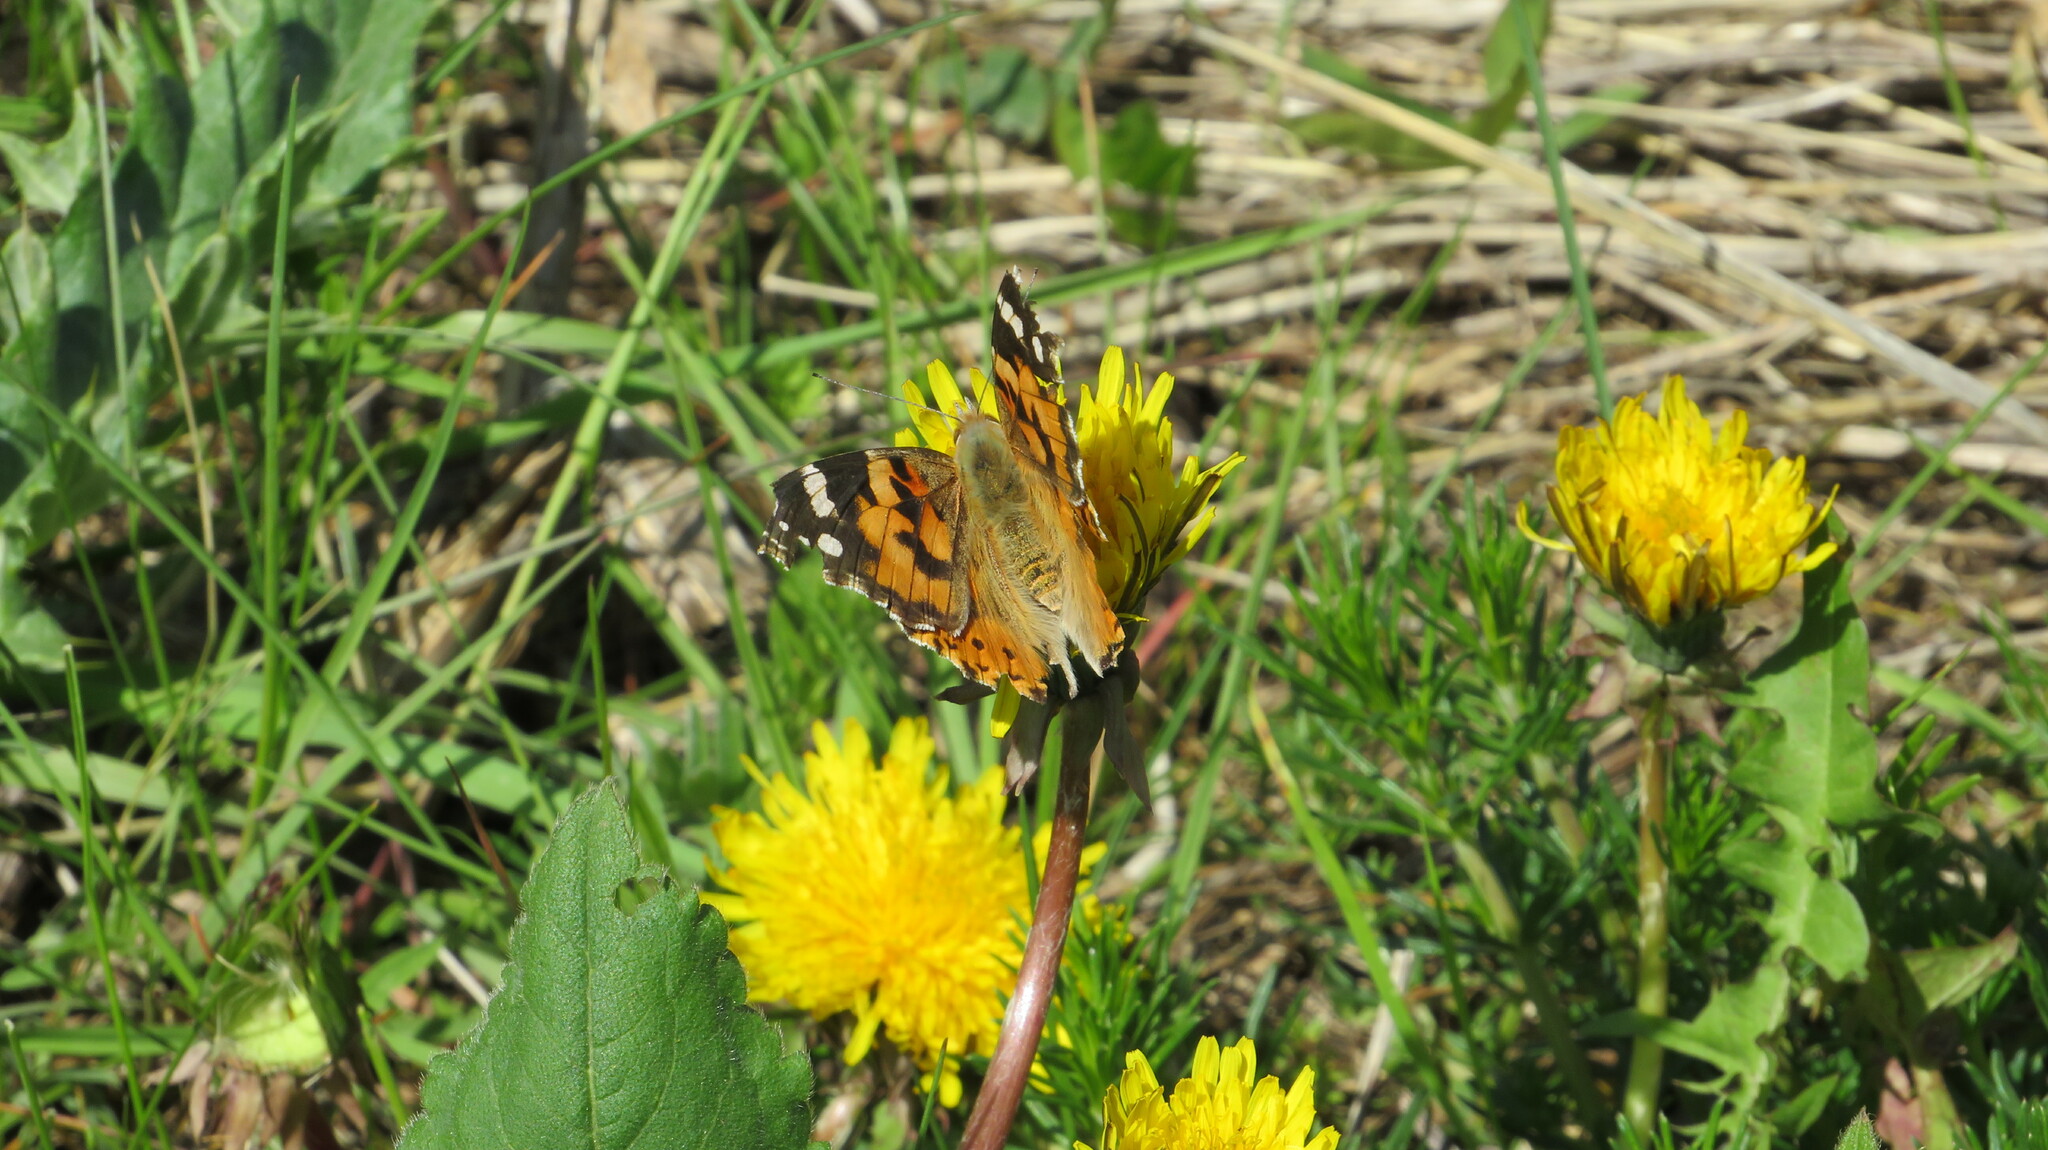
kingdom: Animalia
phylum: Arthropoda
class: Insecta
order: Lepidoptera
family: Nymphalidae
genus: Vanessa
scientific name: Vanessa cardui
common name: Painted lady
